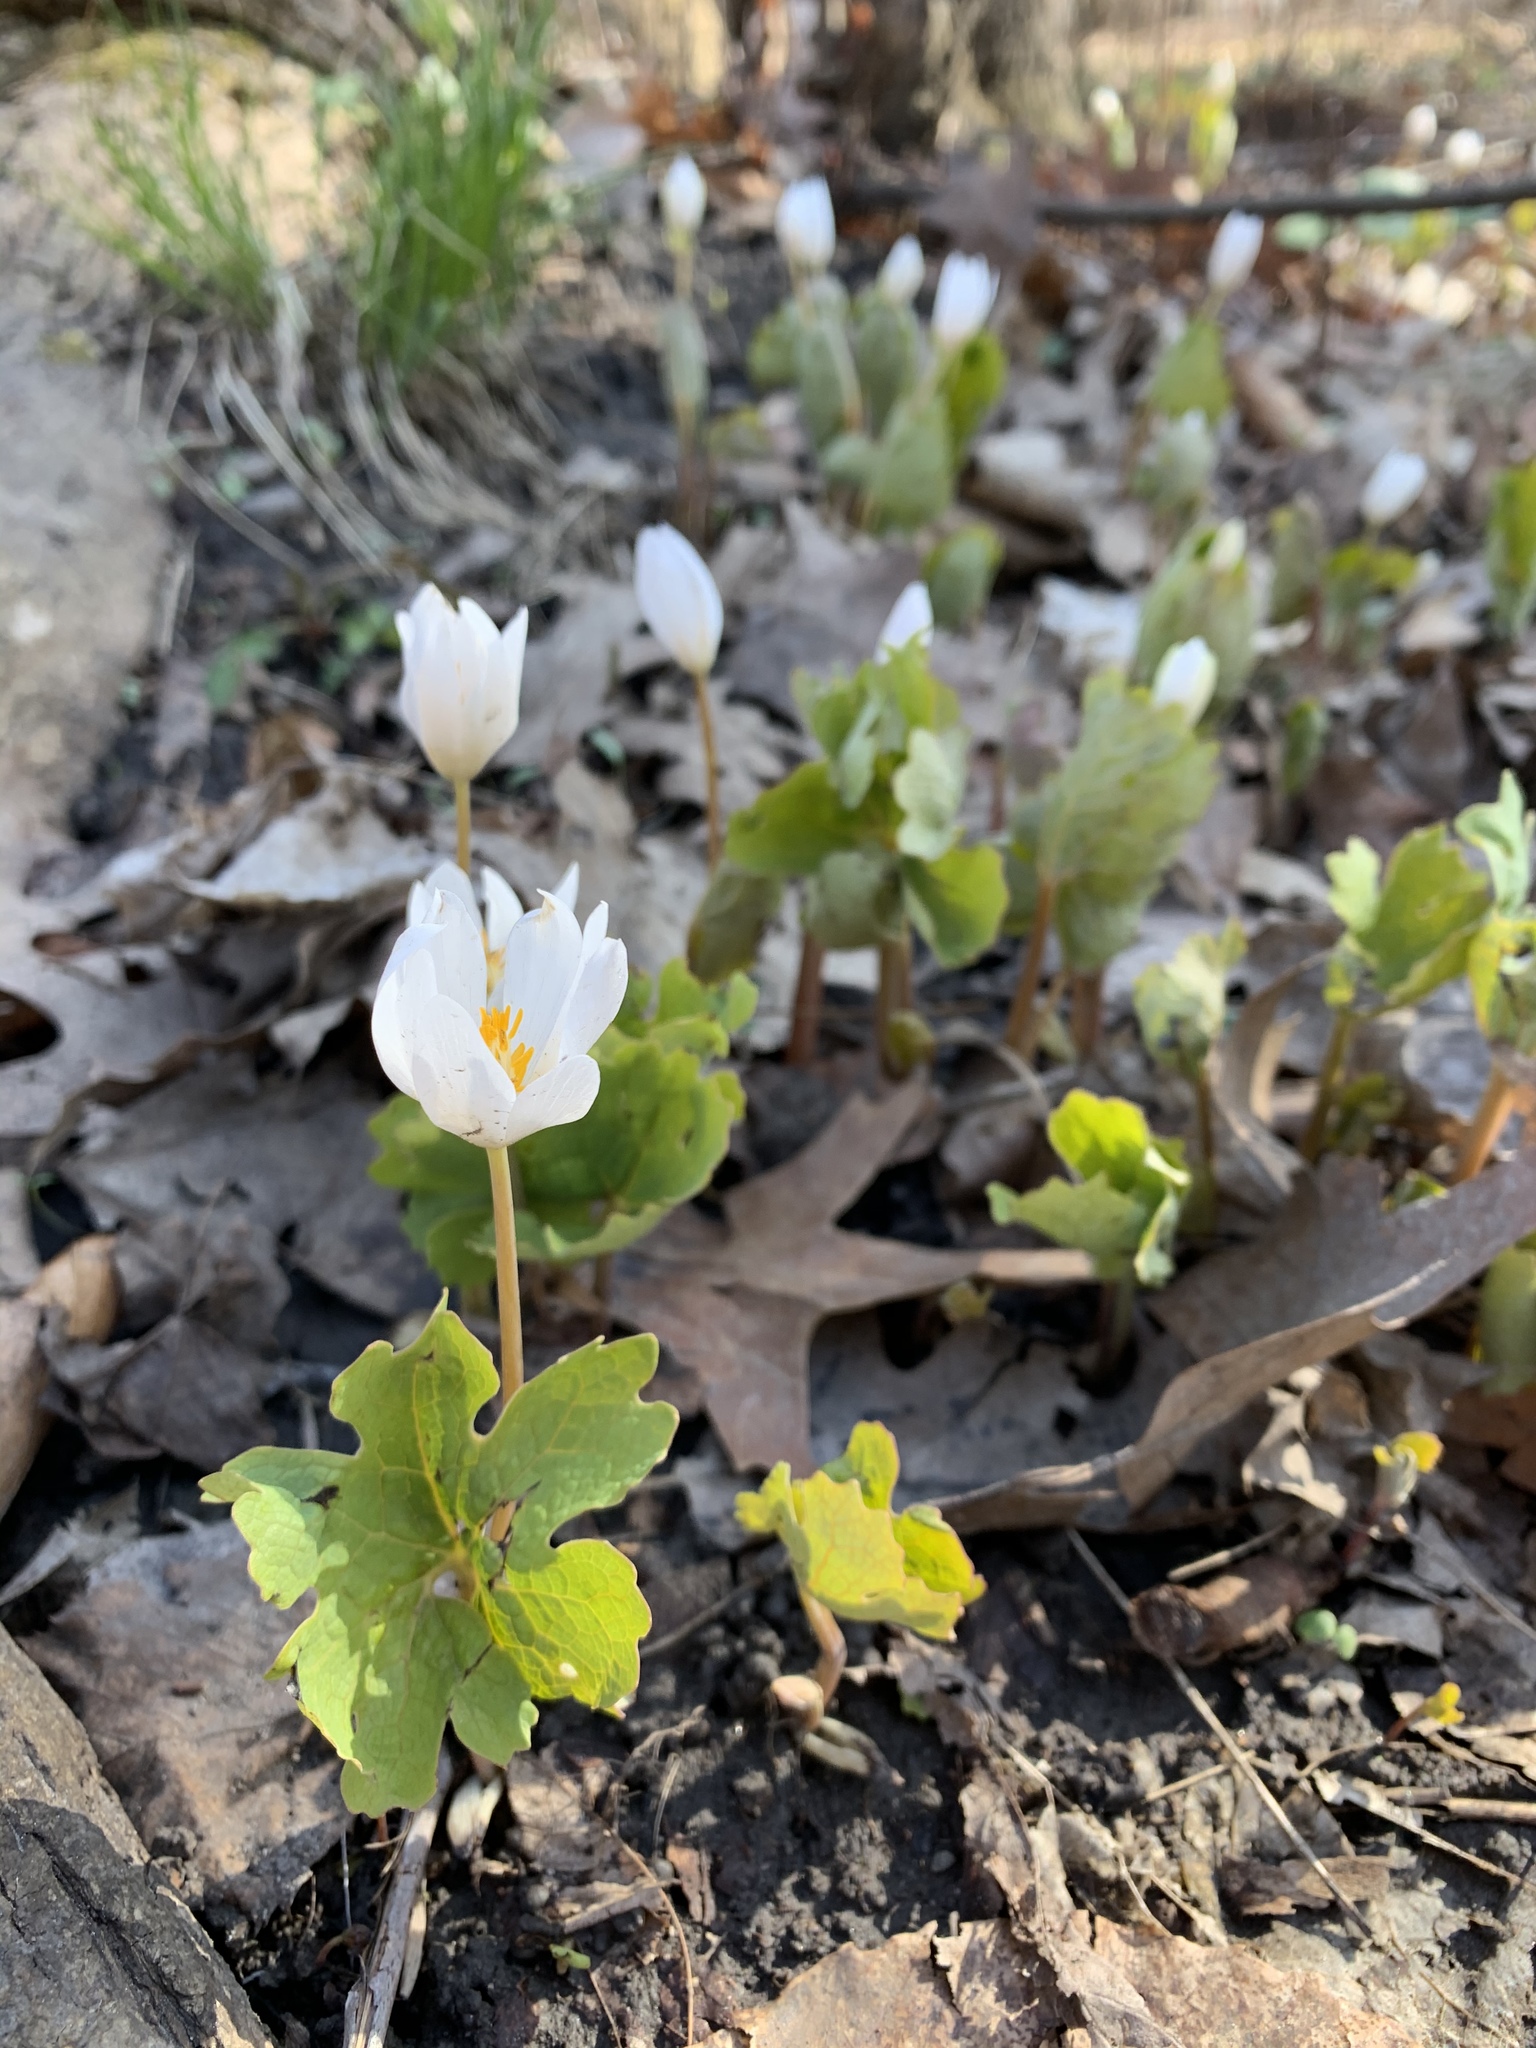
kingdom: Plantae
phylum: Tracheophyta
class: Magnoliopsida
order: Ranunculales
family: Papaveraceae
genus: Sanguinaria
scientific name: Sanguinaria canadensis
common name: Bloodroot
